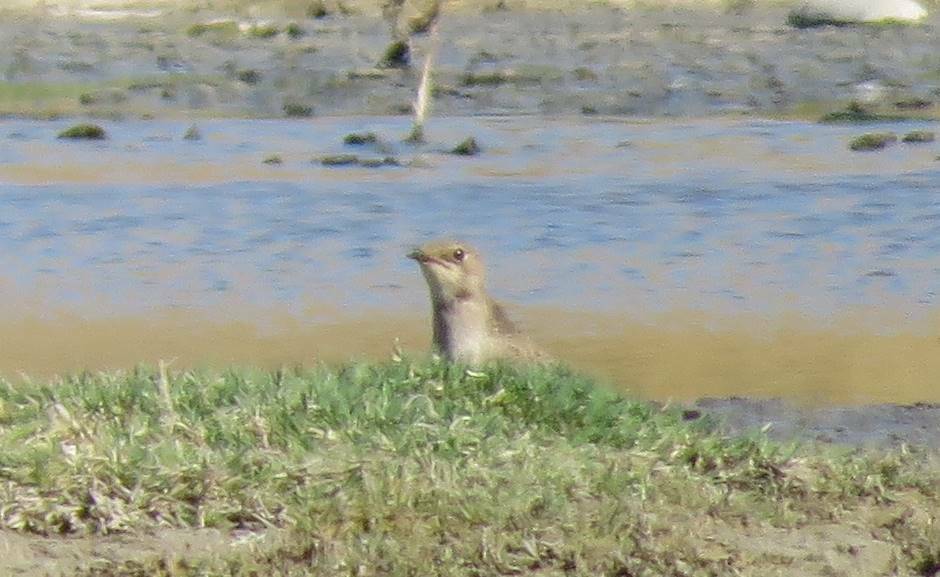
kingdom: Animalia
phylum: Chordata
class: Aves
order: Charadriiformes
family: Glareolidae
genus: Glareola
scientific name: Glareola pratincola
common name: Collared pratincole
